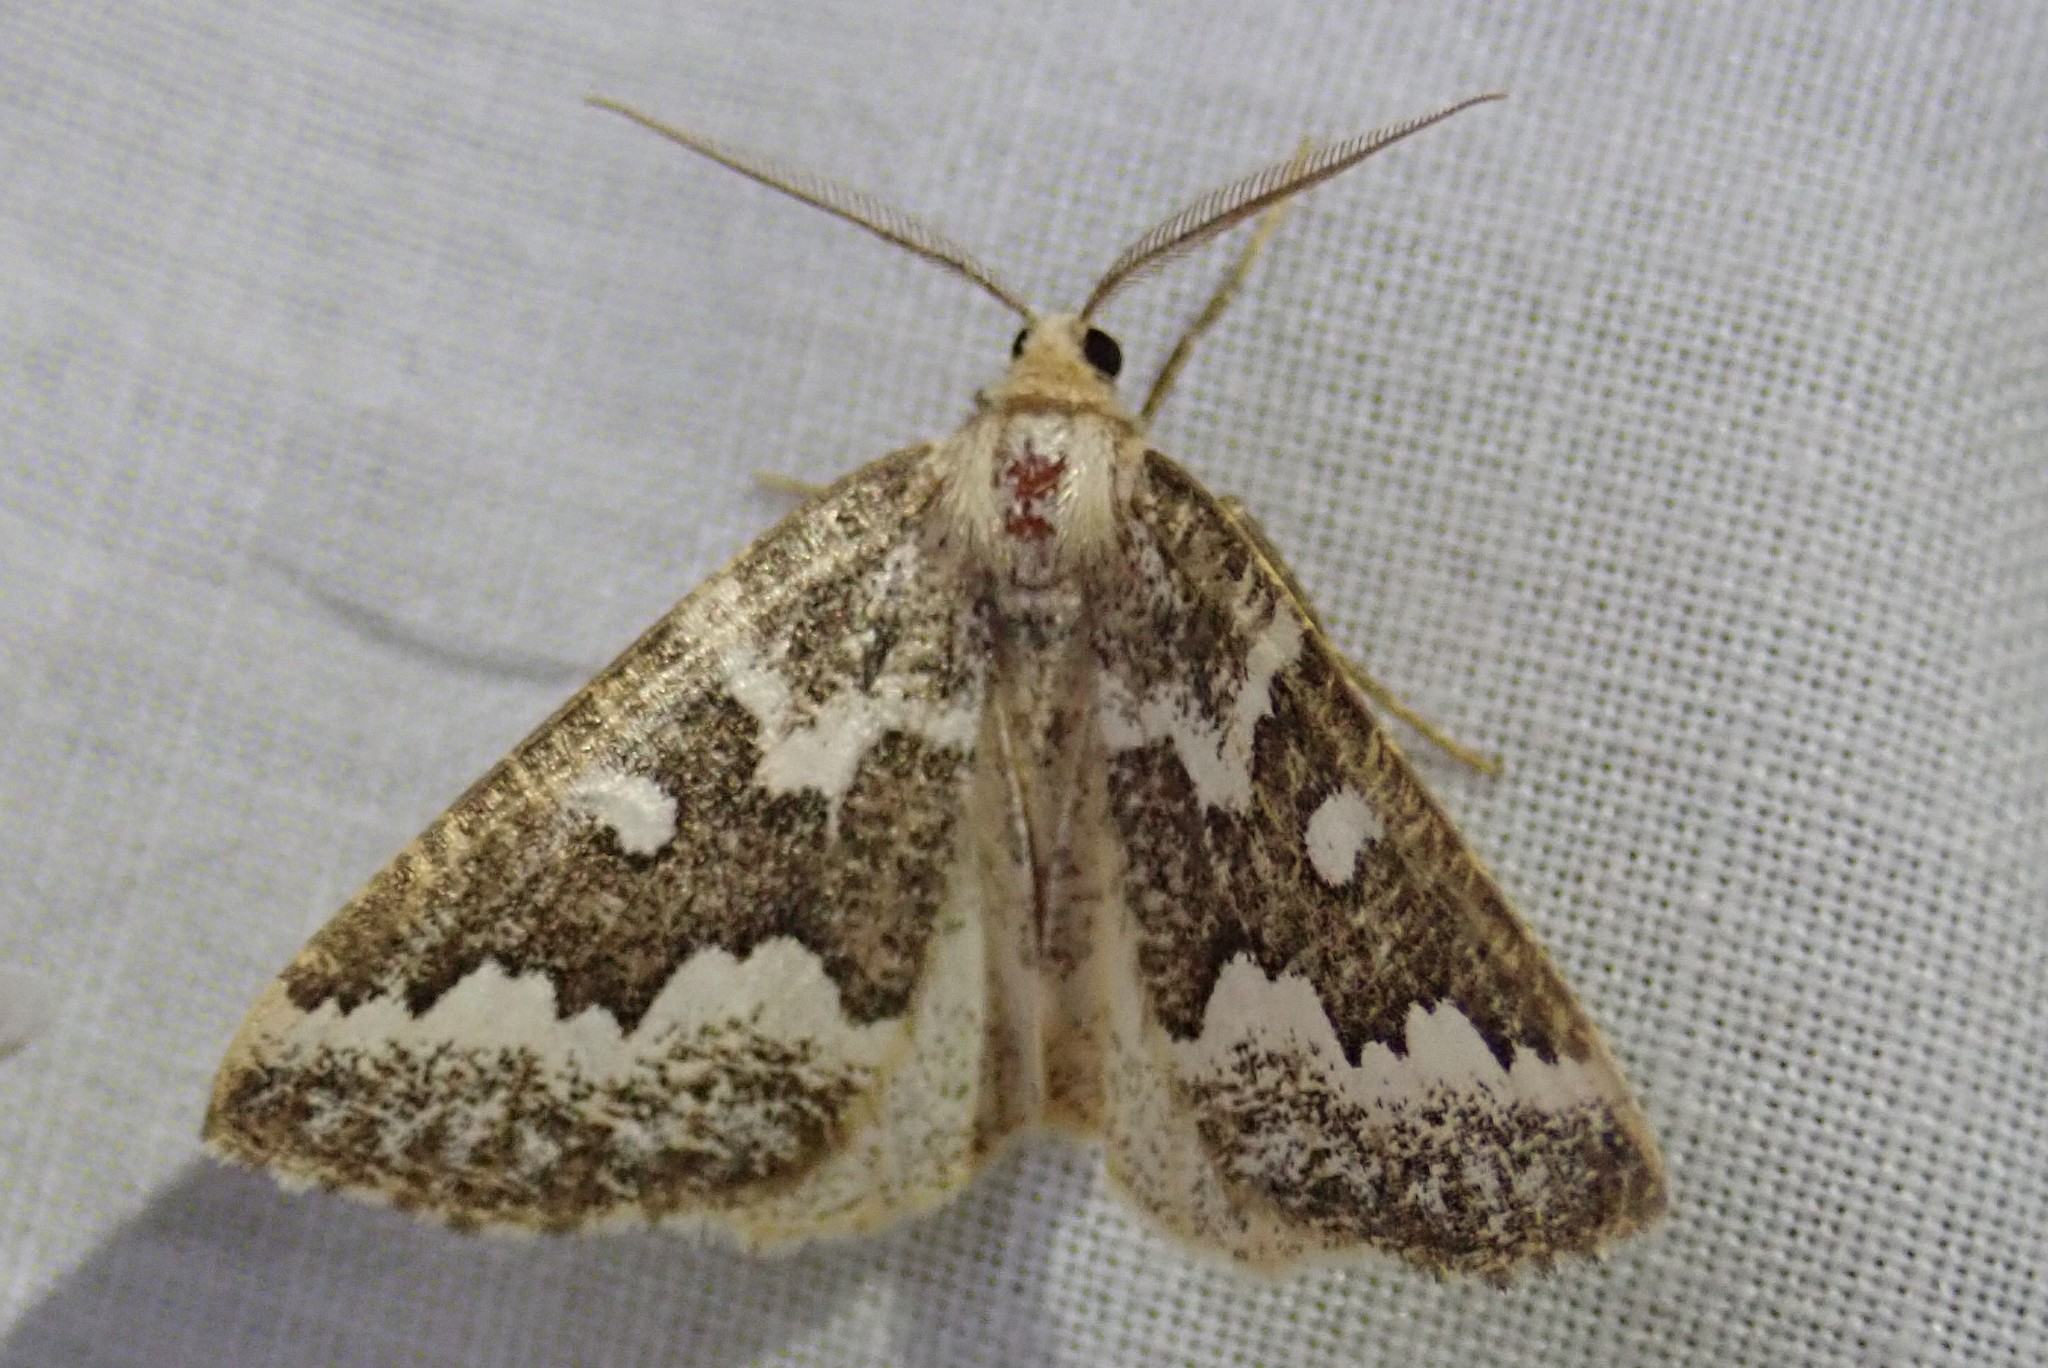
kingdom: Animalia
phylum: Arthropoda
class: Insecta
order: Lepidoptera
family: Geometridae
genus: Caripeta
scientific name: Caripeta divisata
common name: Gray spruce looper
